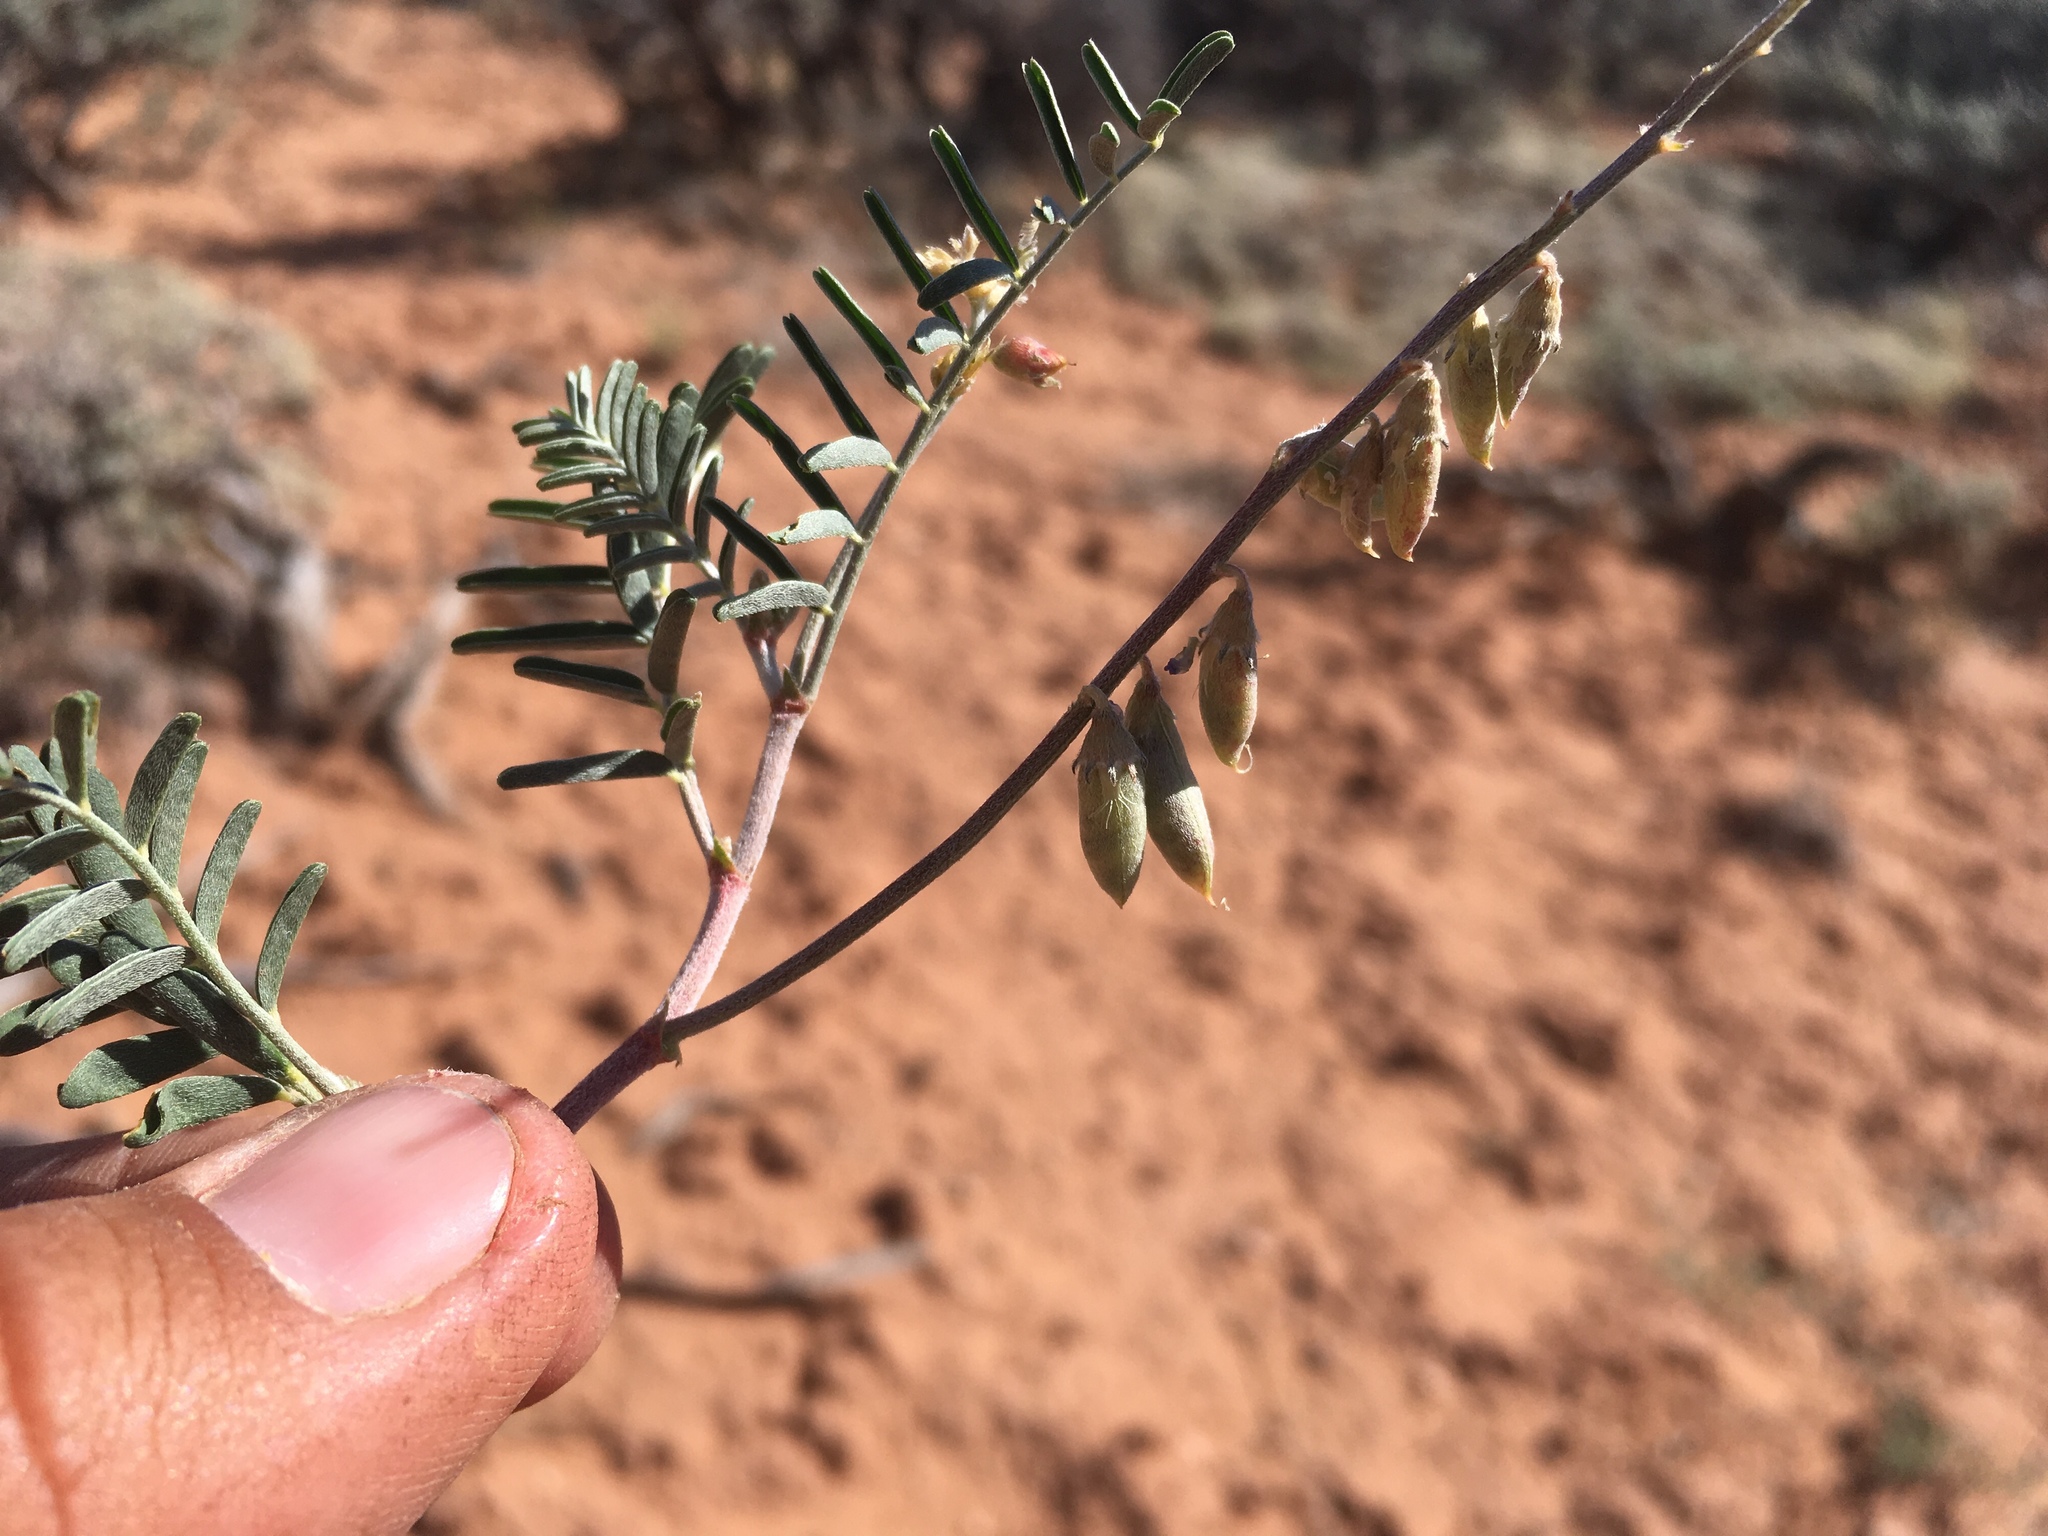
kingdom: Plantae
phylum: Tracheophyta
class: Magnoliopsida
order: Fabales
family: Fabaceae
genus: Astragalus
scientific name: Astragalus brandegeei
